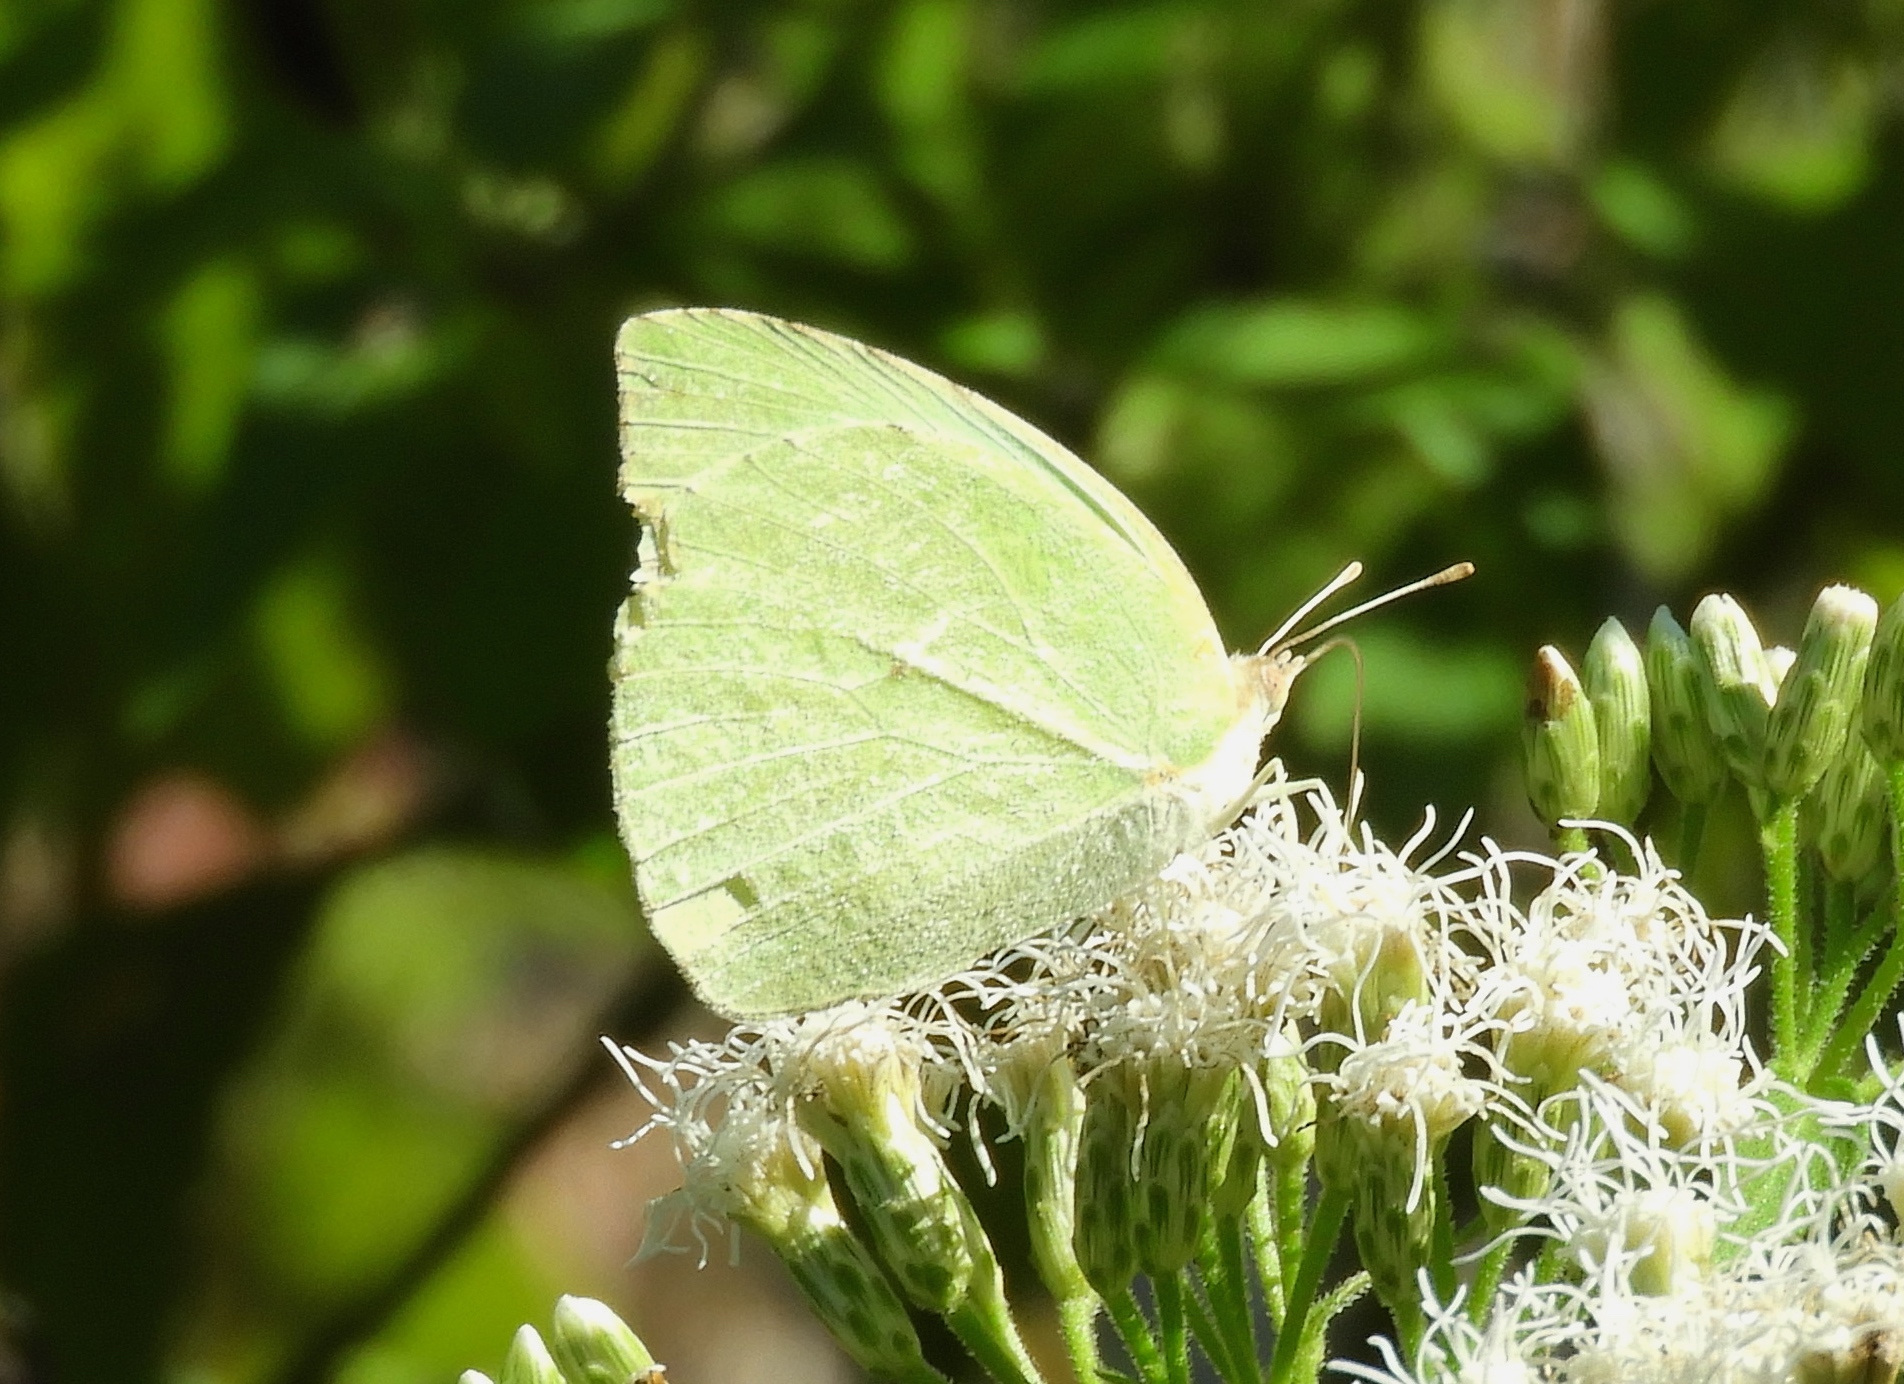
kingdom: Animalia
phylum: Arthropoda
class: Insecta
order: Lepidoptera
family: Pieridae
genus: Kricogonia
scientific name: Kricogonia lyside
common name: Guayacan sulphur,
